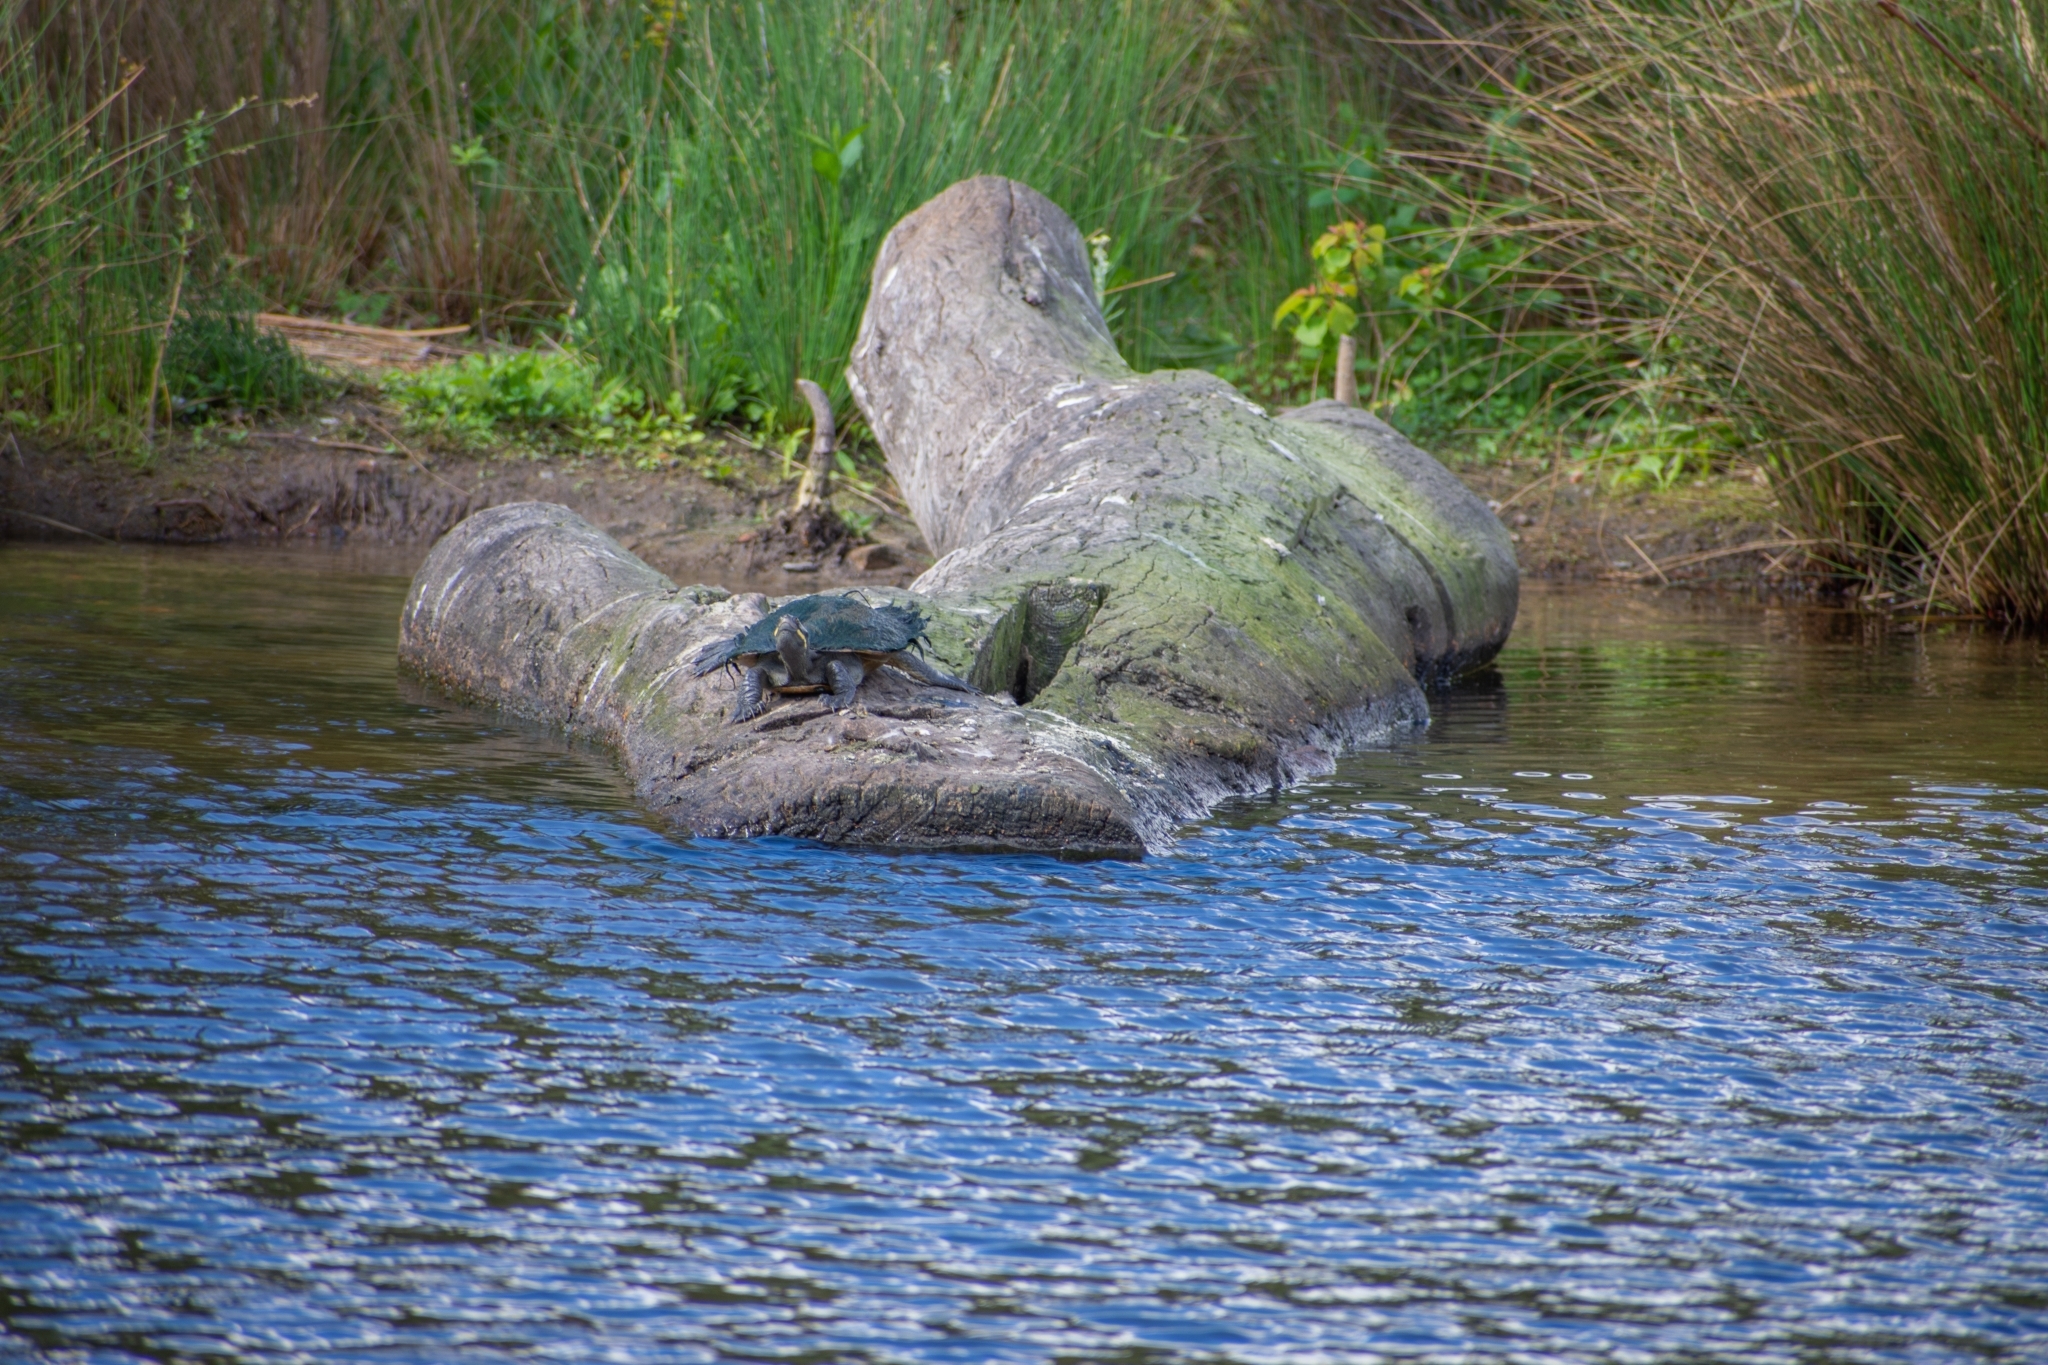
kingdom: Animalia
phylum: Chordata
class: Testudines
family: Chelidae
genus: Emydura
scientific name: Emydura macquarii
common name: Murray river turtle
